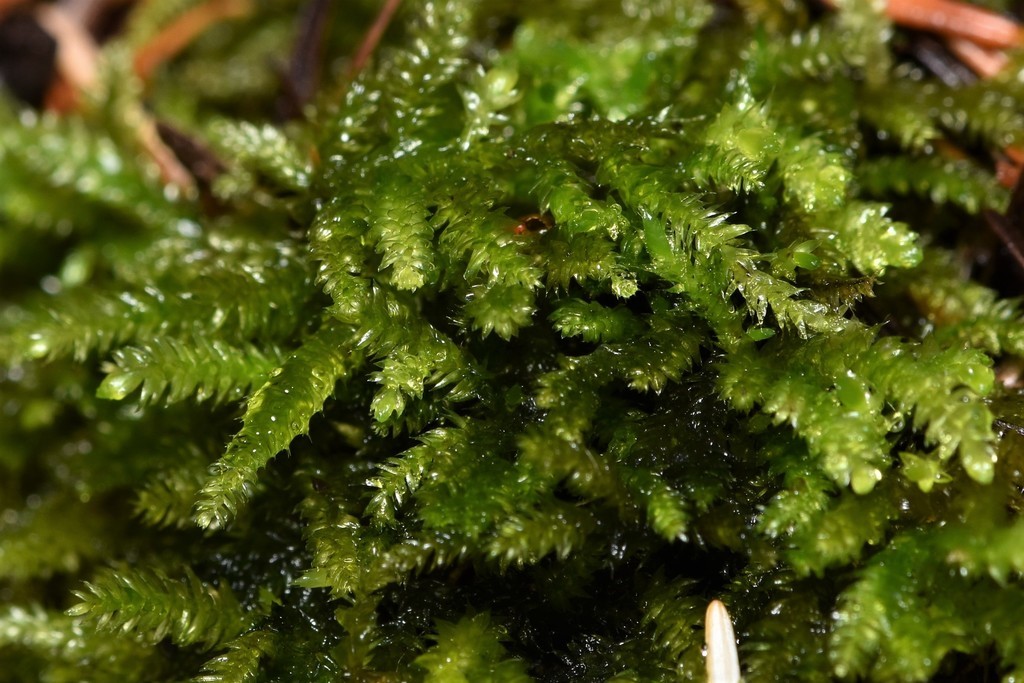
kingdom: Plantae
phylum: Bryophyta
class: Bryopsida
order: Hypnales
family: Brachytheciaceae
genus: Eurhynchiastrum
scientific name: Eurhynchiastrum pulchellum
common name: Elegant beaked moss
